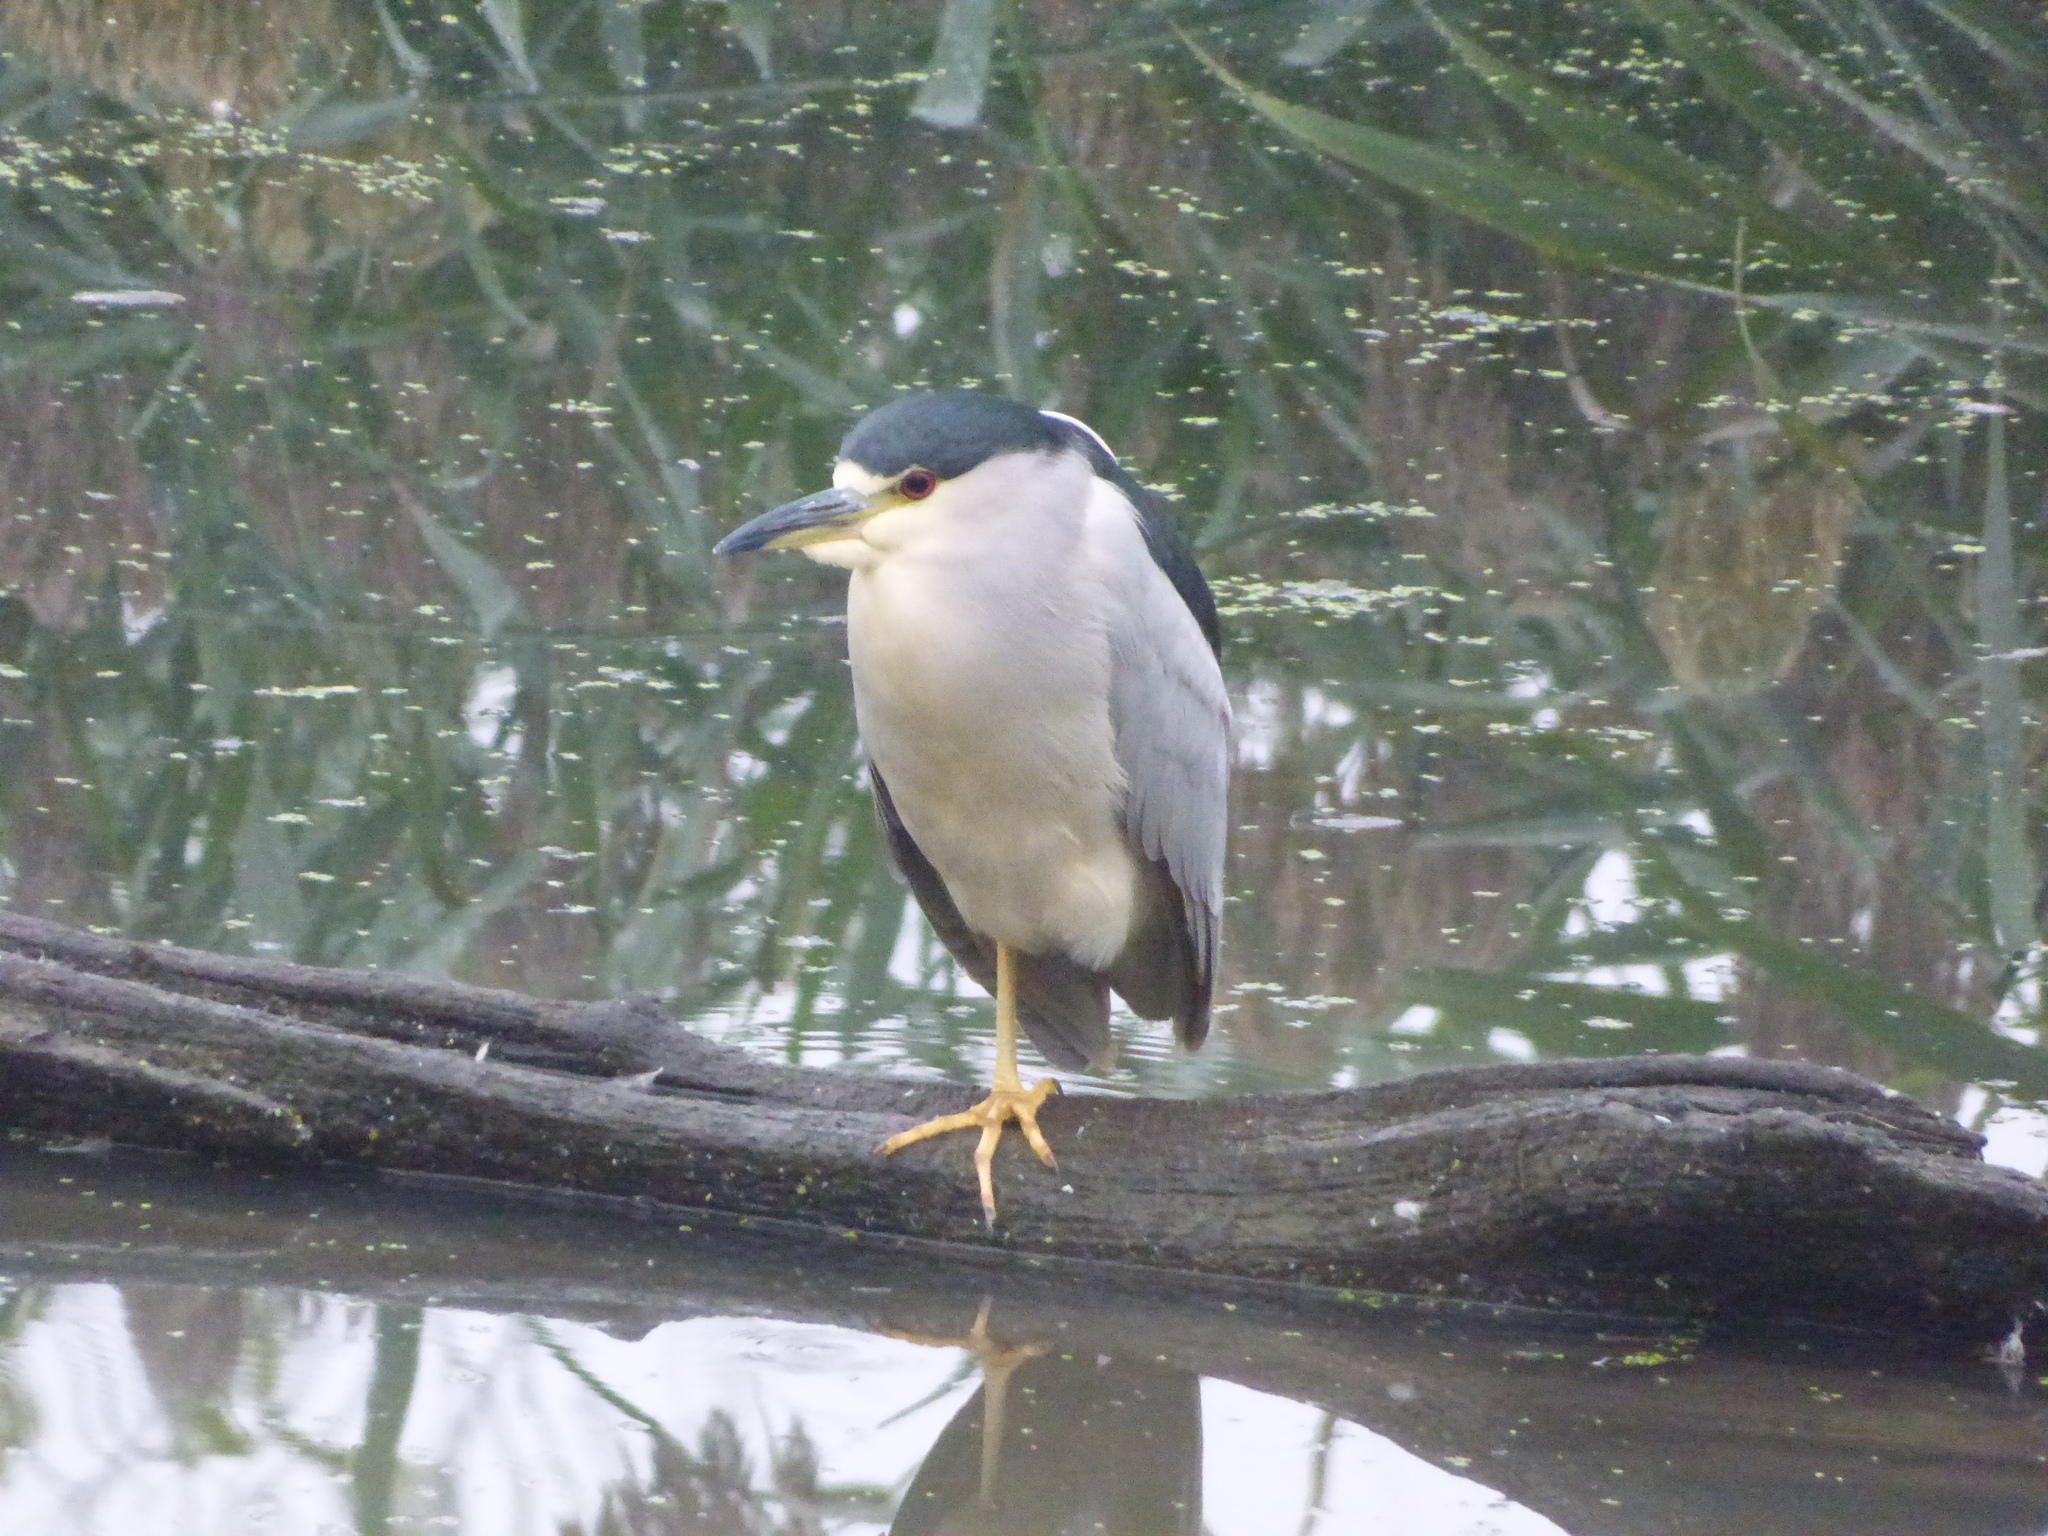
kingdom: Animalia
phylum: Chordata
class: Aves
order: Pelecaniformes
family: Ardeidae
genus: Nycticorax
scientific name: Nycticorax nycticorax
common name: Black-crowned night heron
